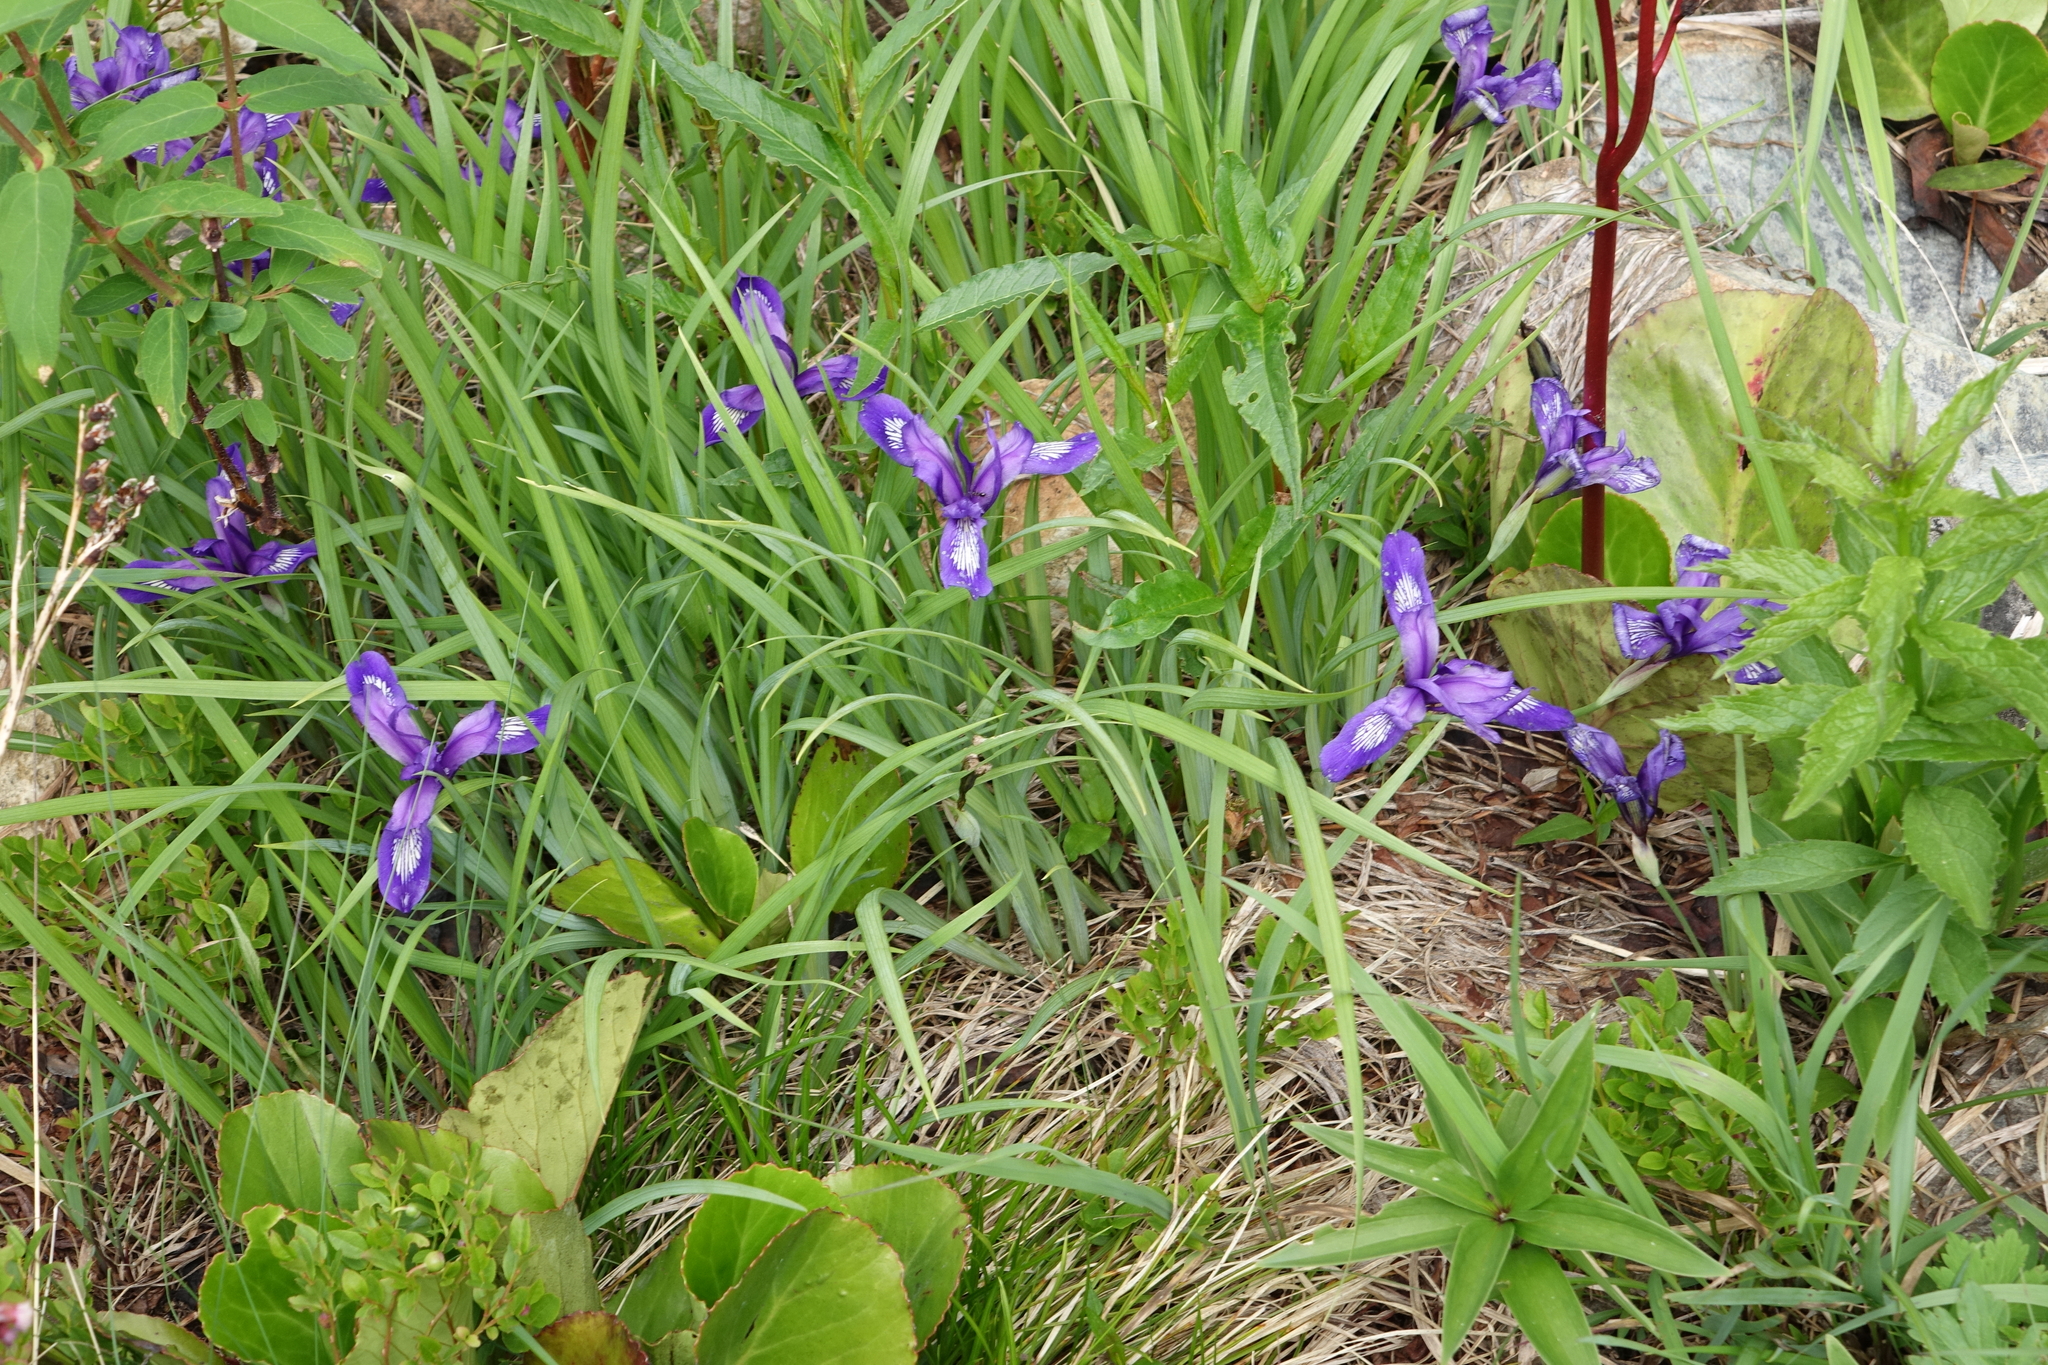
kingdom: Plantae
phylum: Tracheophyta
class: Liliopsida
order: Asparagales
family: Iridaceae
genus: Iris
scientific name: Iris ruthenica
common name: Purple-bract iris
